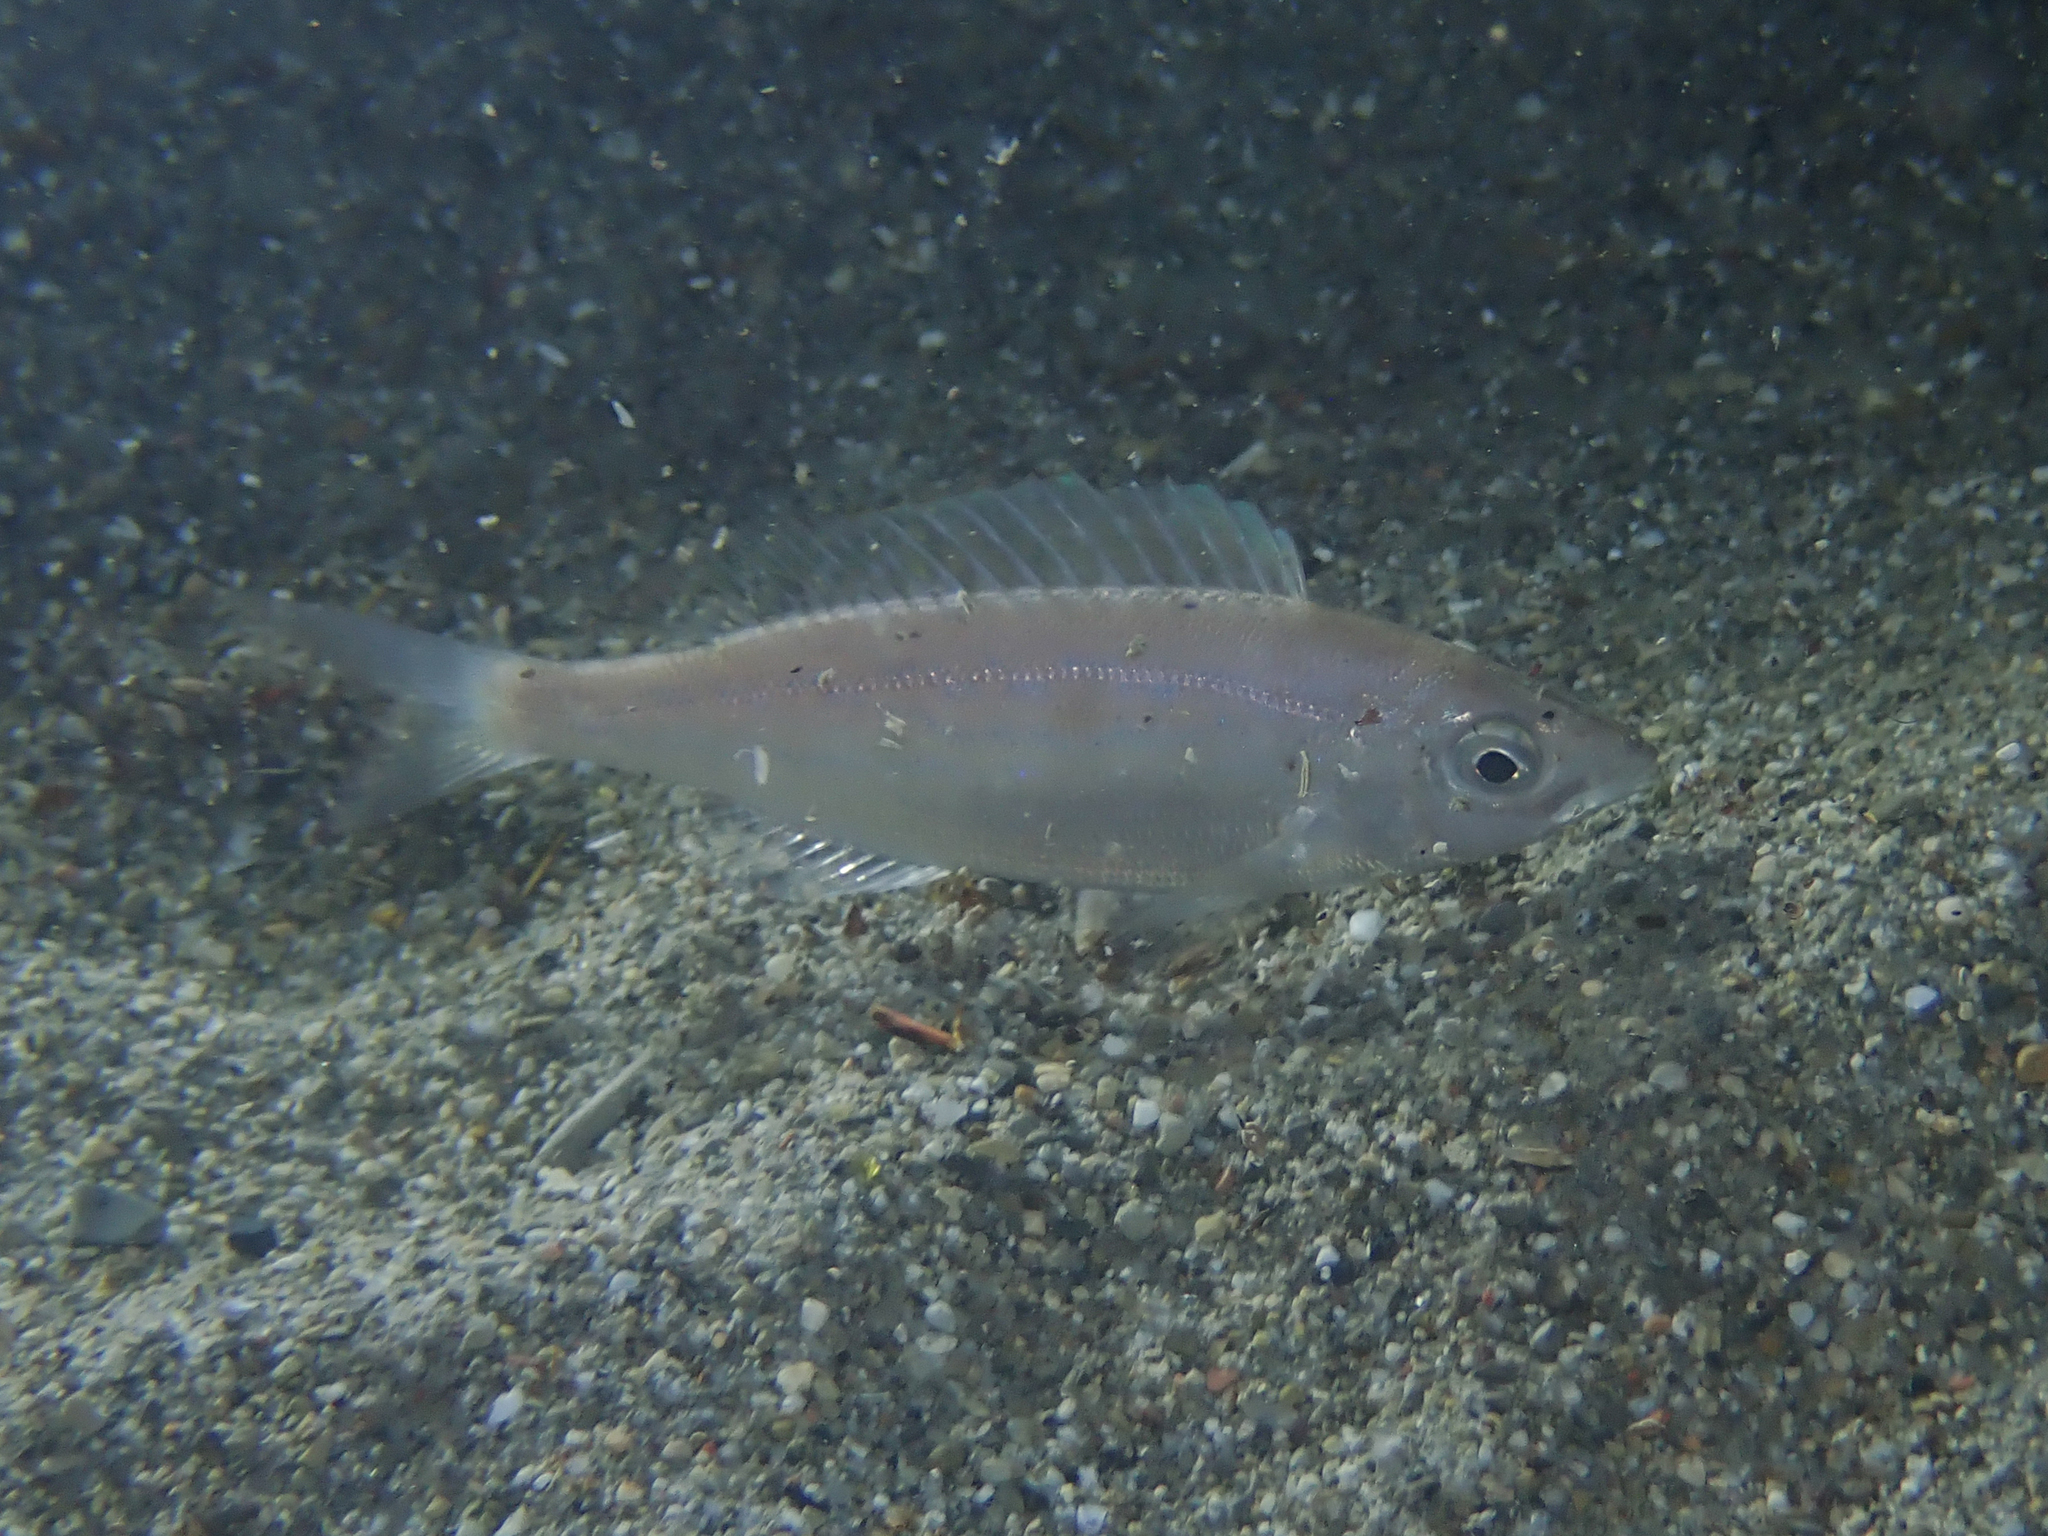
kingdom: Animalia
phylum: Chordata
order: Perciformes
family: Sparidae
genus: Spicara
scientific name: Spicara maena
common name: Blotched picarel
